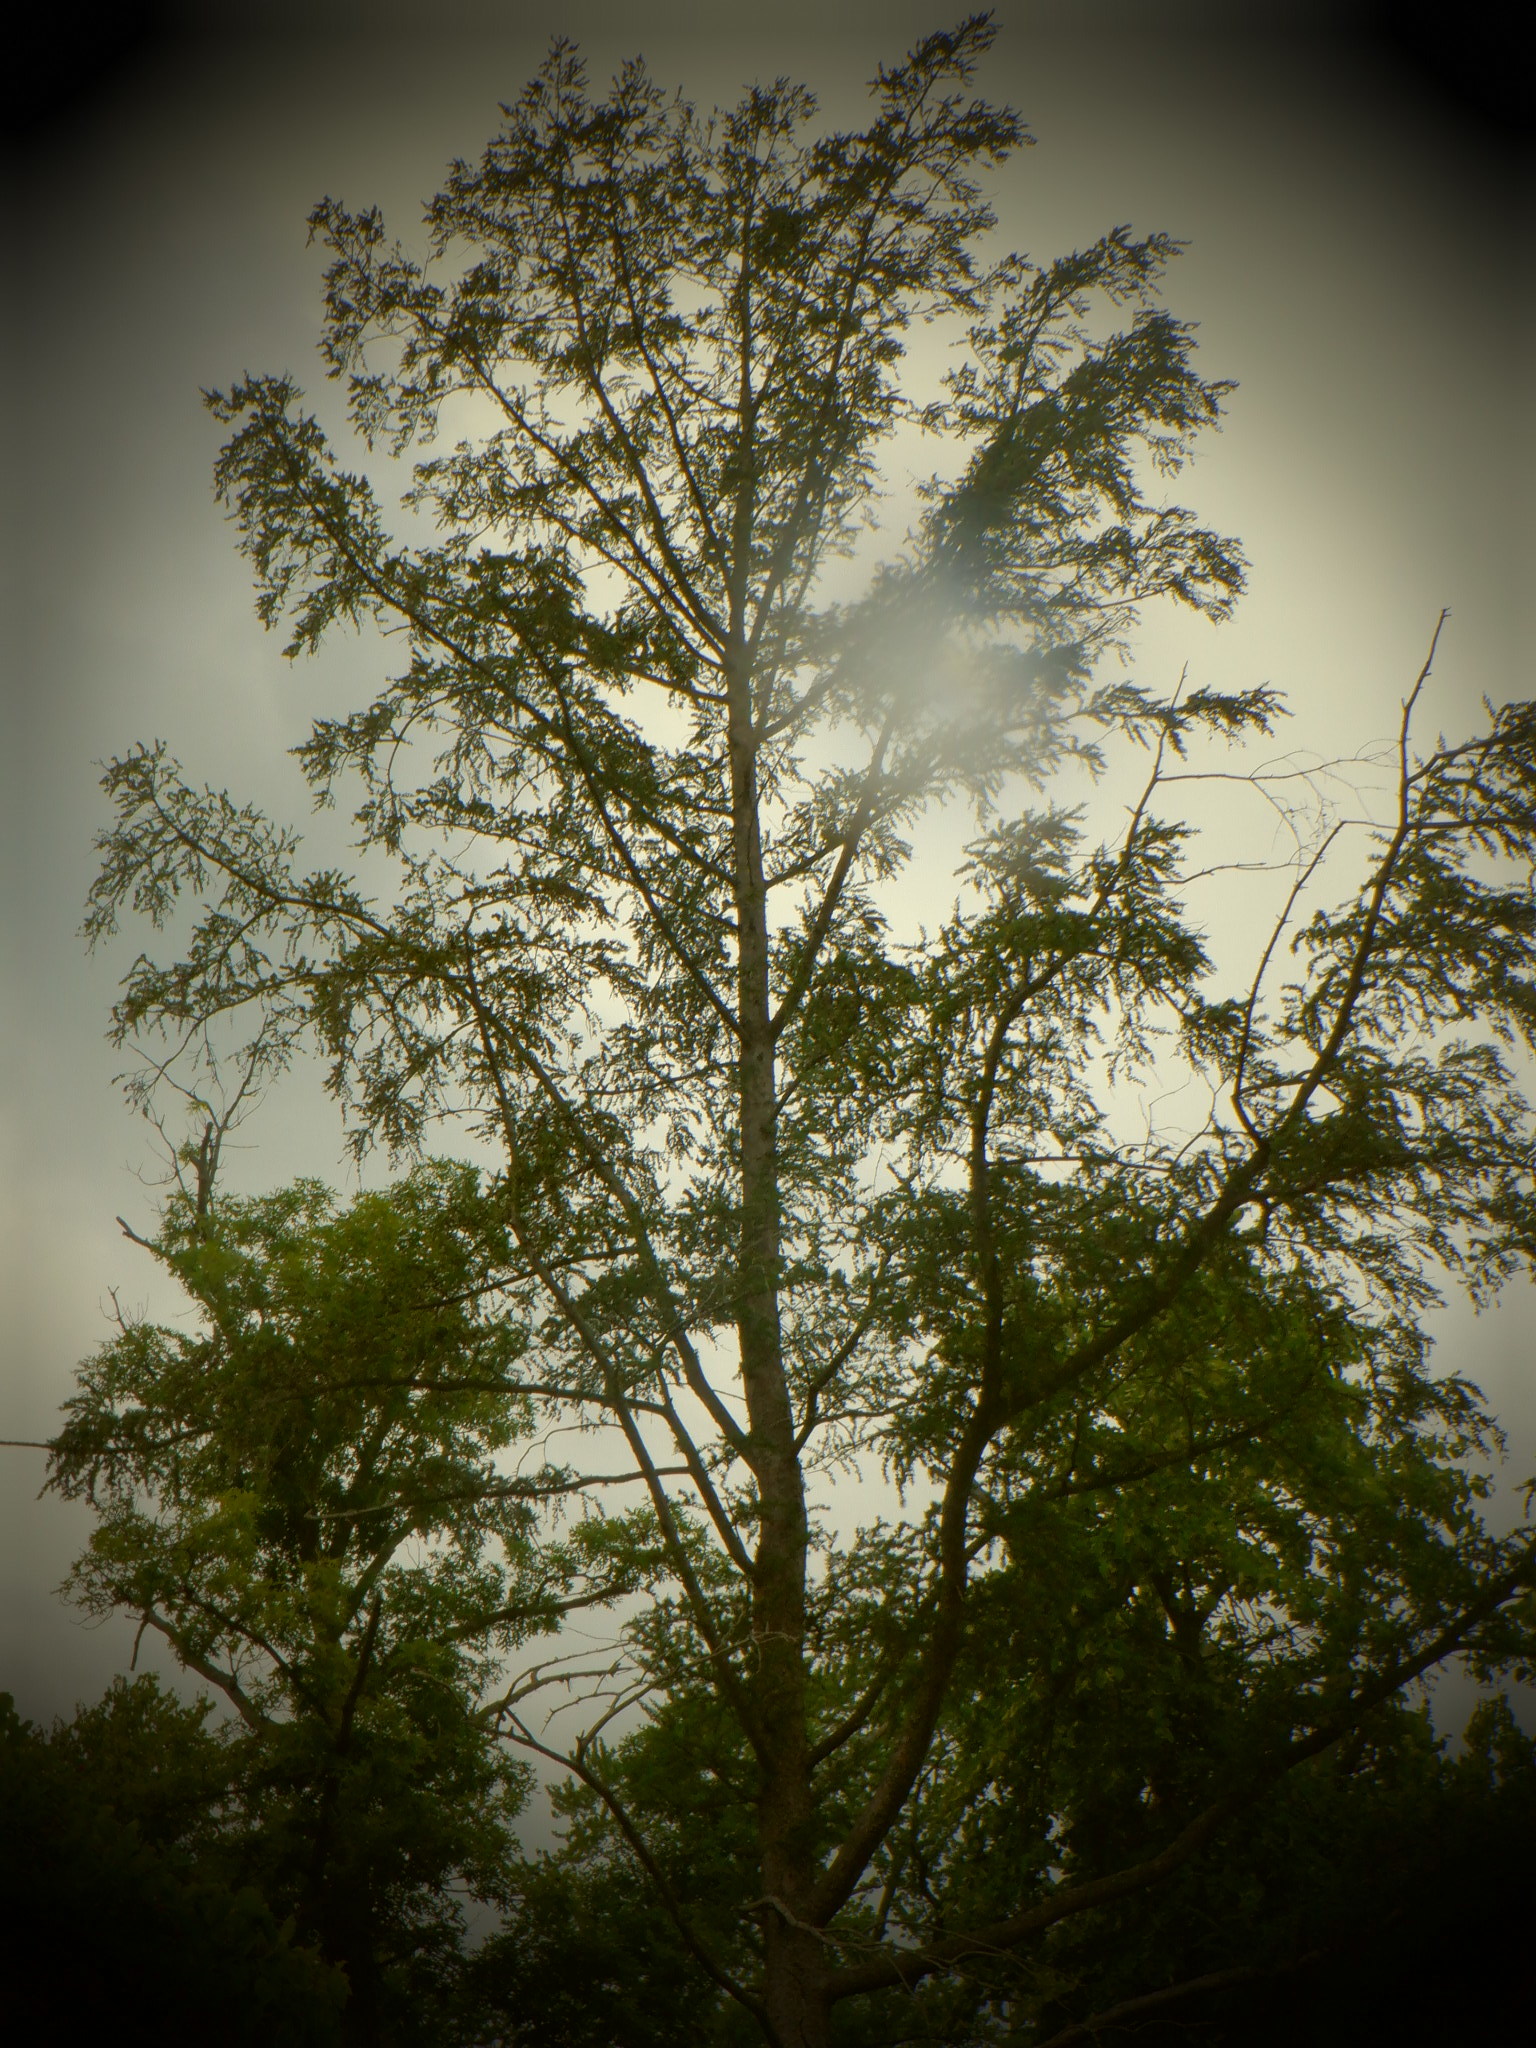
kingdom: Plantae
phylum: Tracheophyta
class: Pinopsida
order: Pinales
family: Pinaceae
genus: Larix
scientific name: Larix decidua
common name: European larch
